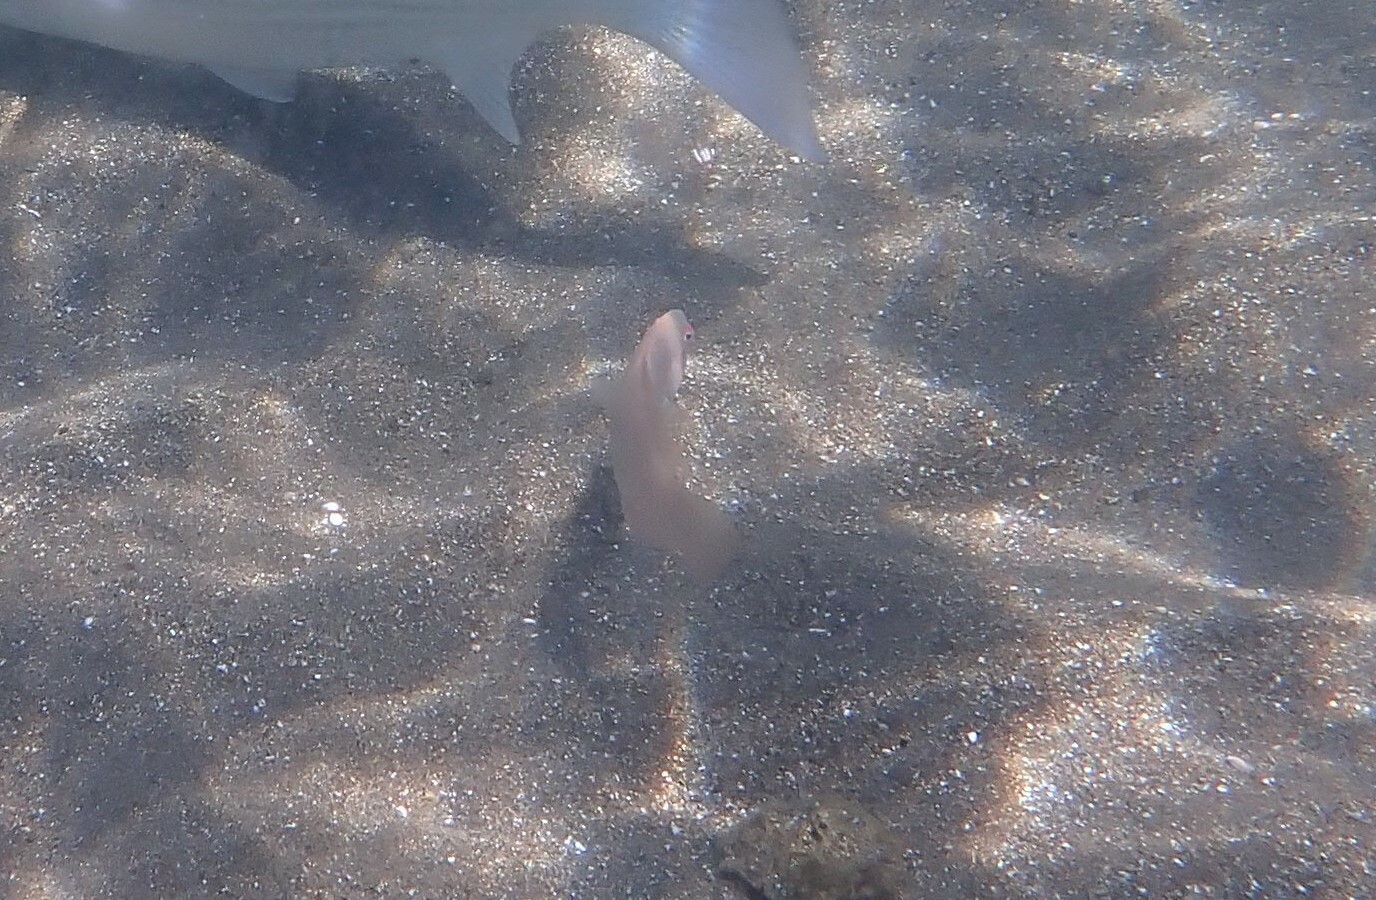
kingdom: Animalia
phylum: Chordata
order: Perciformes
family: Labridae
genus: Xyrichtys
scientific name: Xyrichtys novacula
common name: Pearly razorfish
